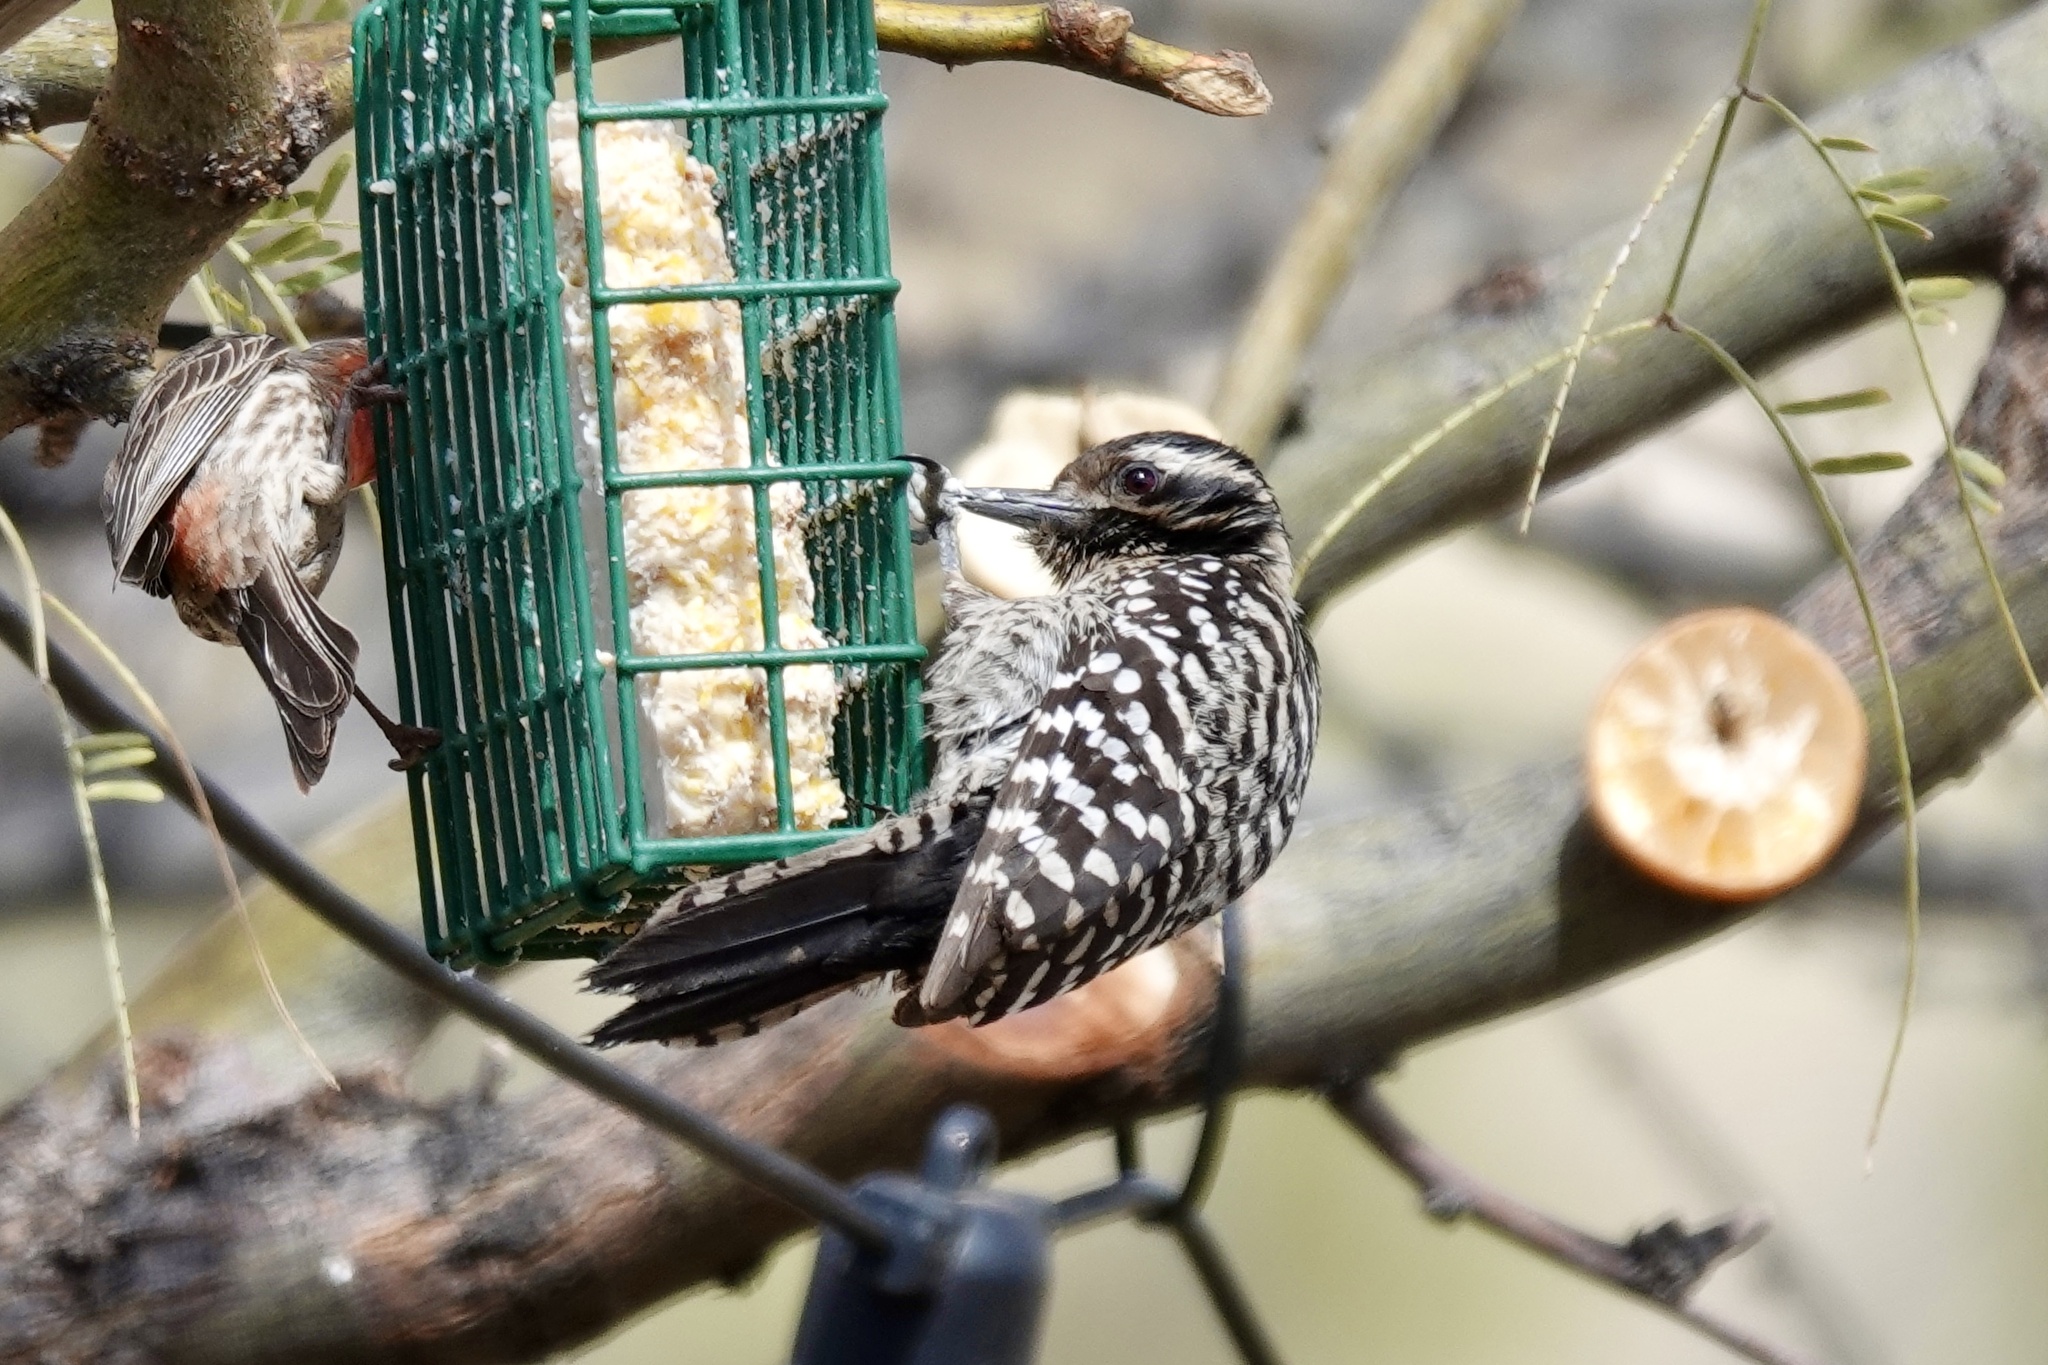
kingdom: Animalia
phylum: Chordata
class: Aves
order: Piciformes
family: Picidae
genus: Dryobates
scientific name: Dryobates scalaris
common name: Ladder-backed woodpecker
